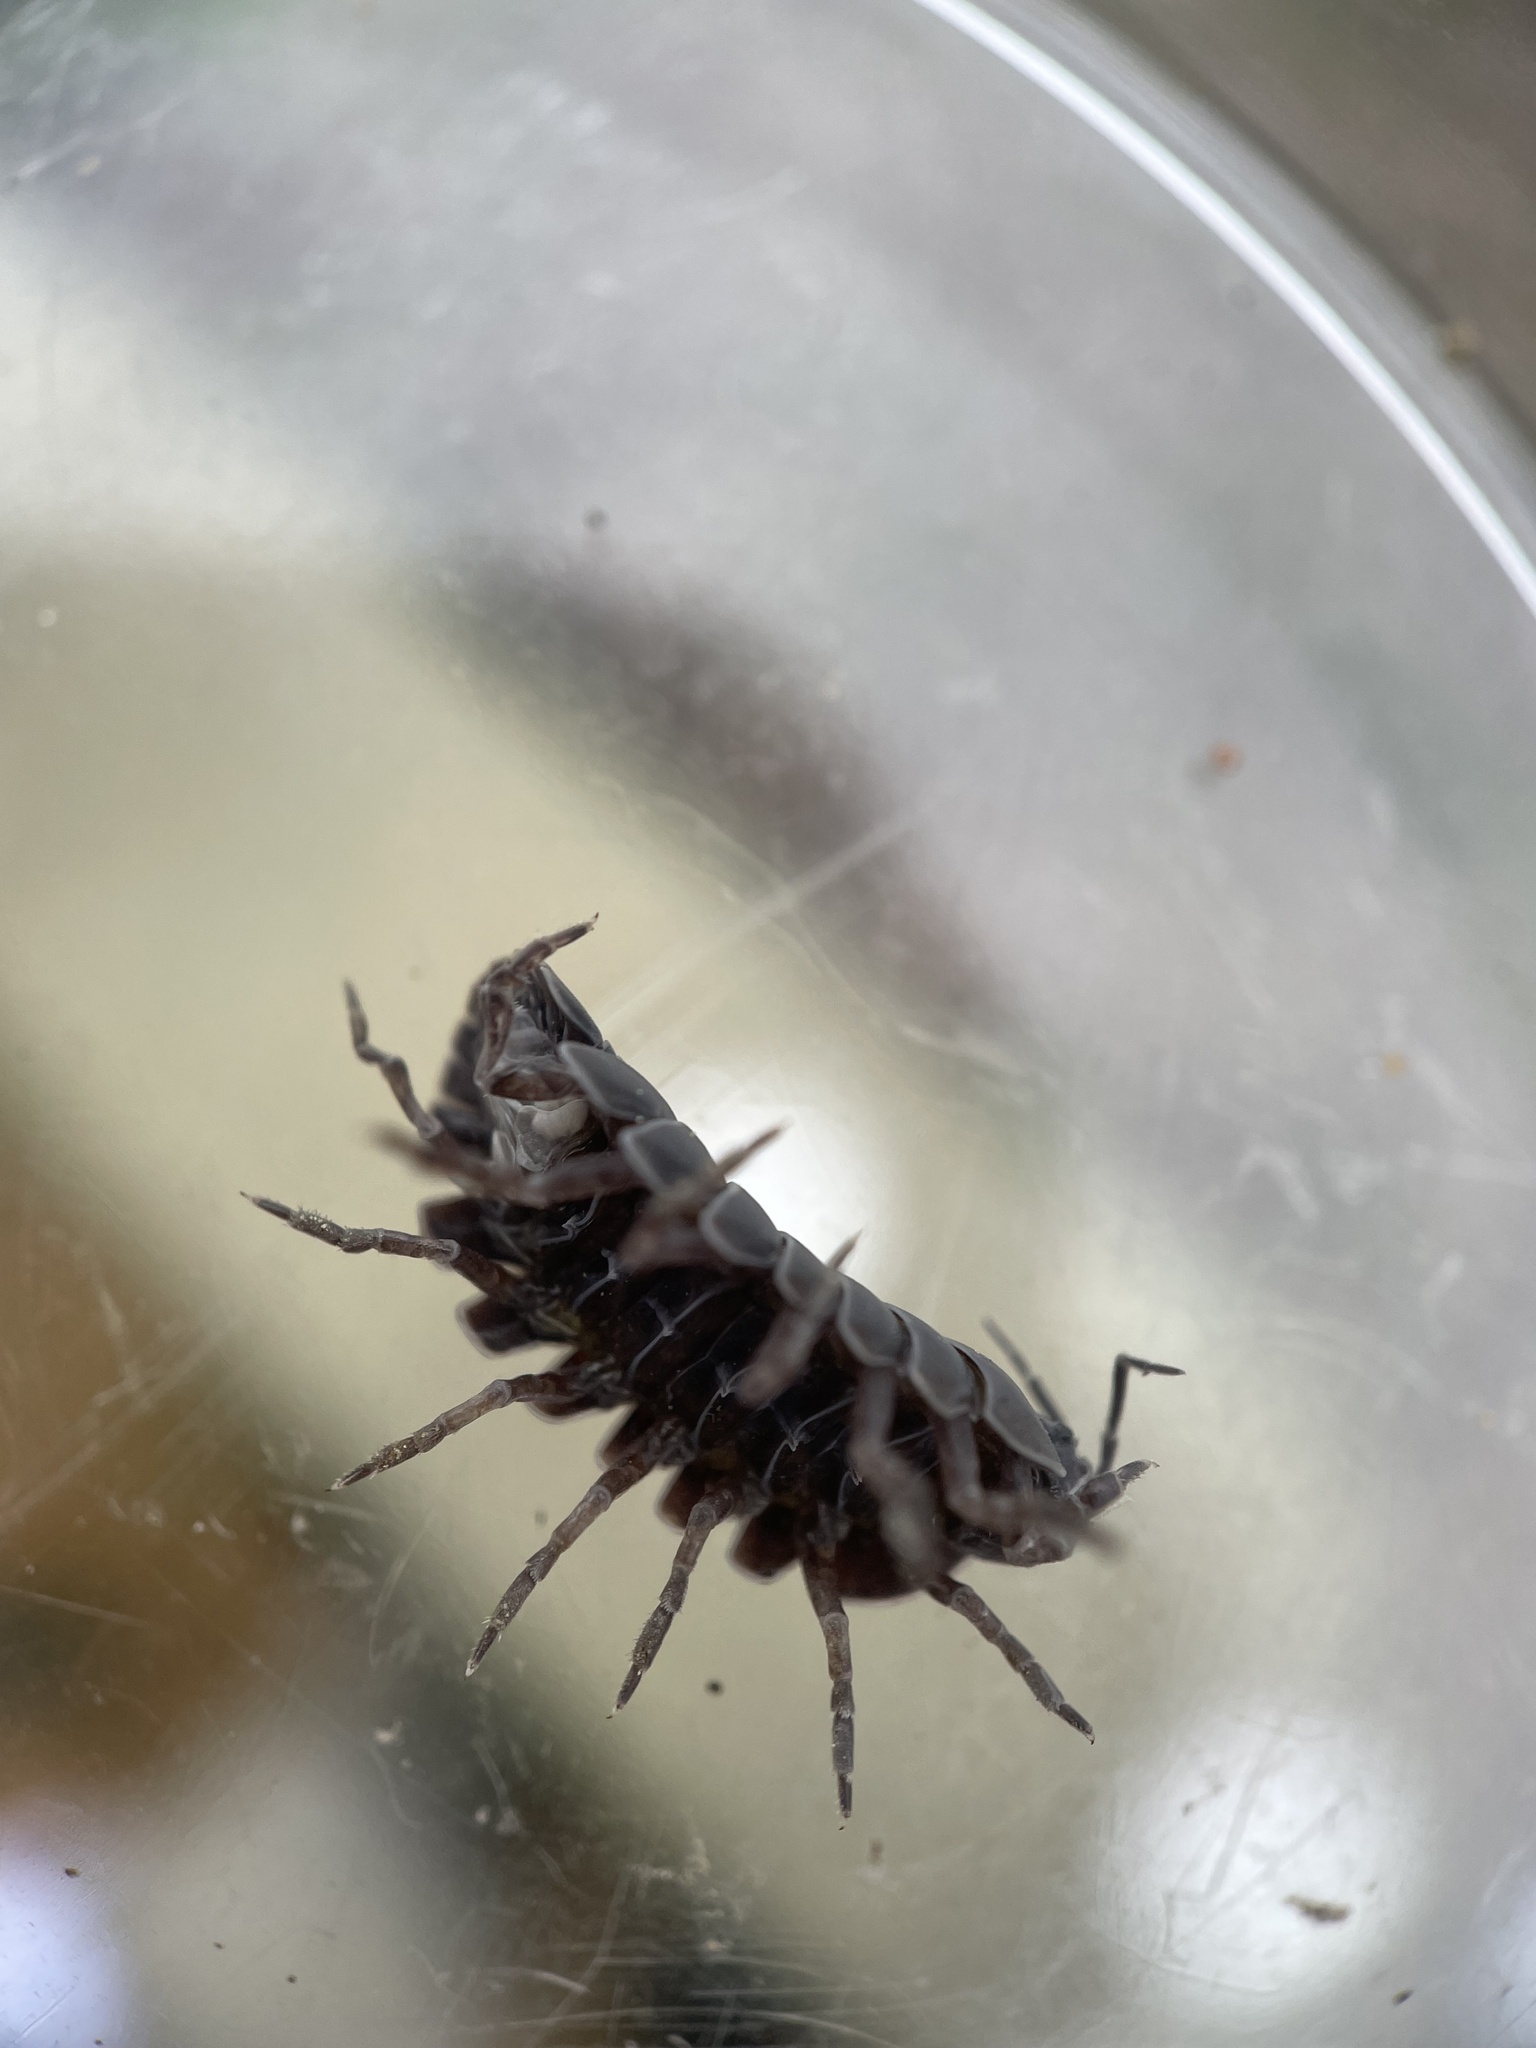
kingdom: Animalia
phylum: Arthropoda
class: Malacostraca
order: Isopoda
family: Armadillidiidae
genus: Armadillidium
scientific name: Armadillidium vulgare
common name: Common pill woodlouse
